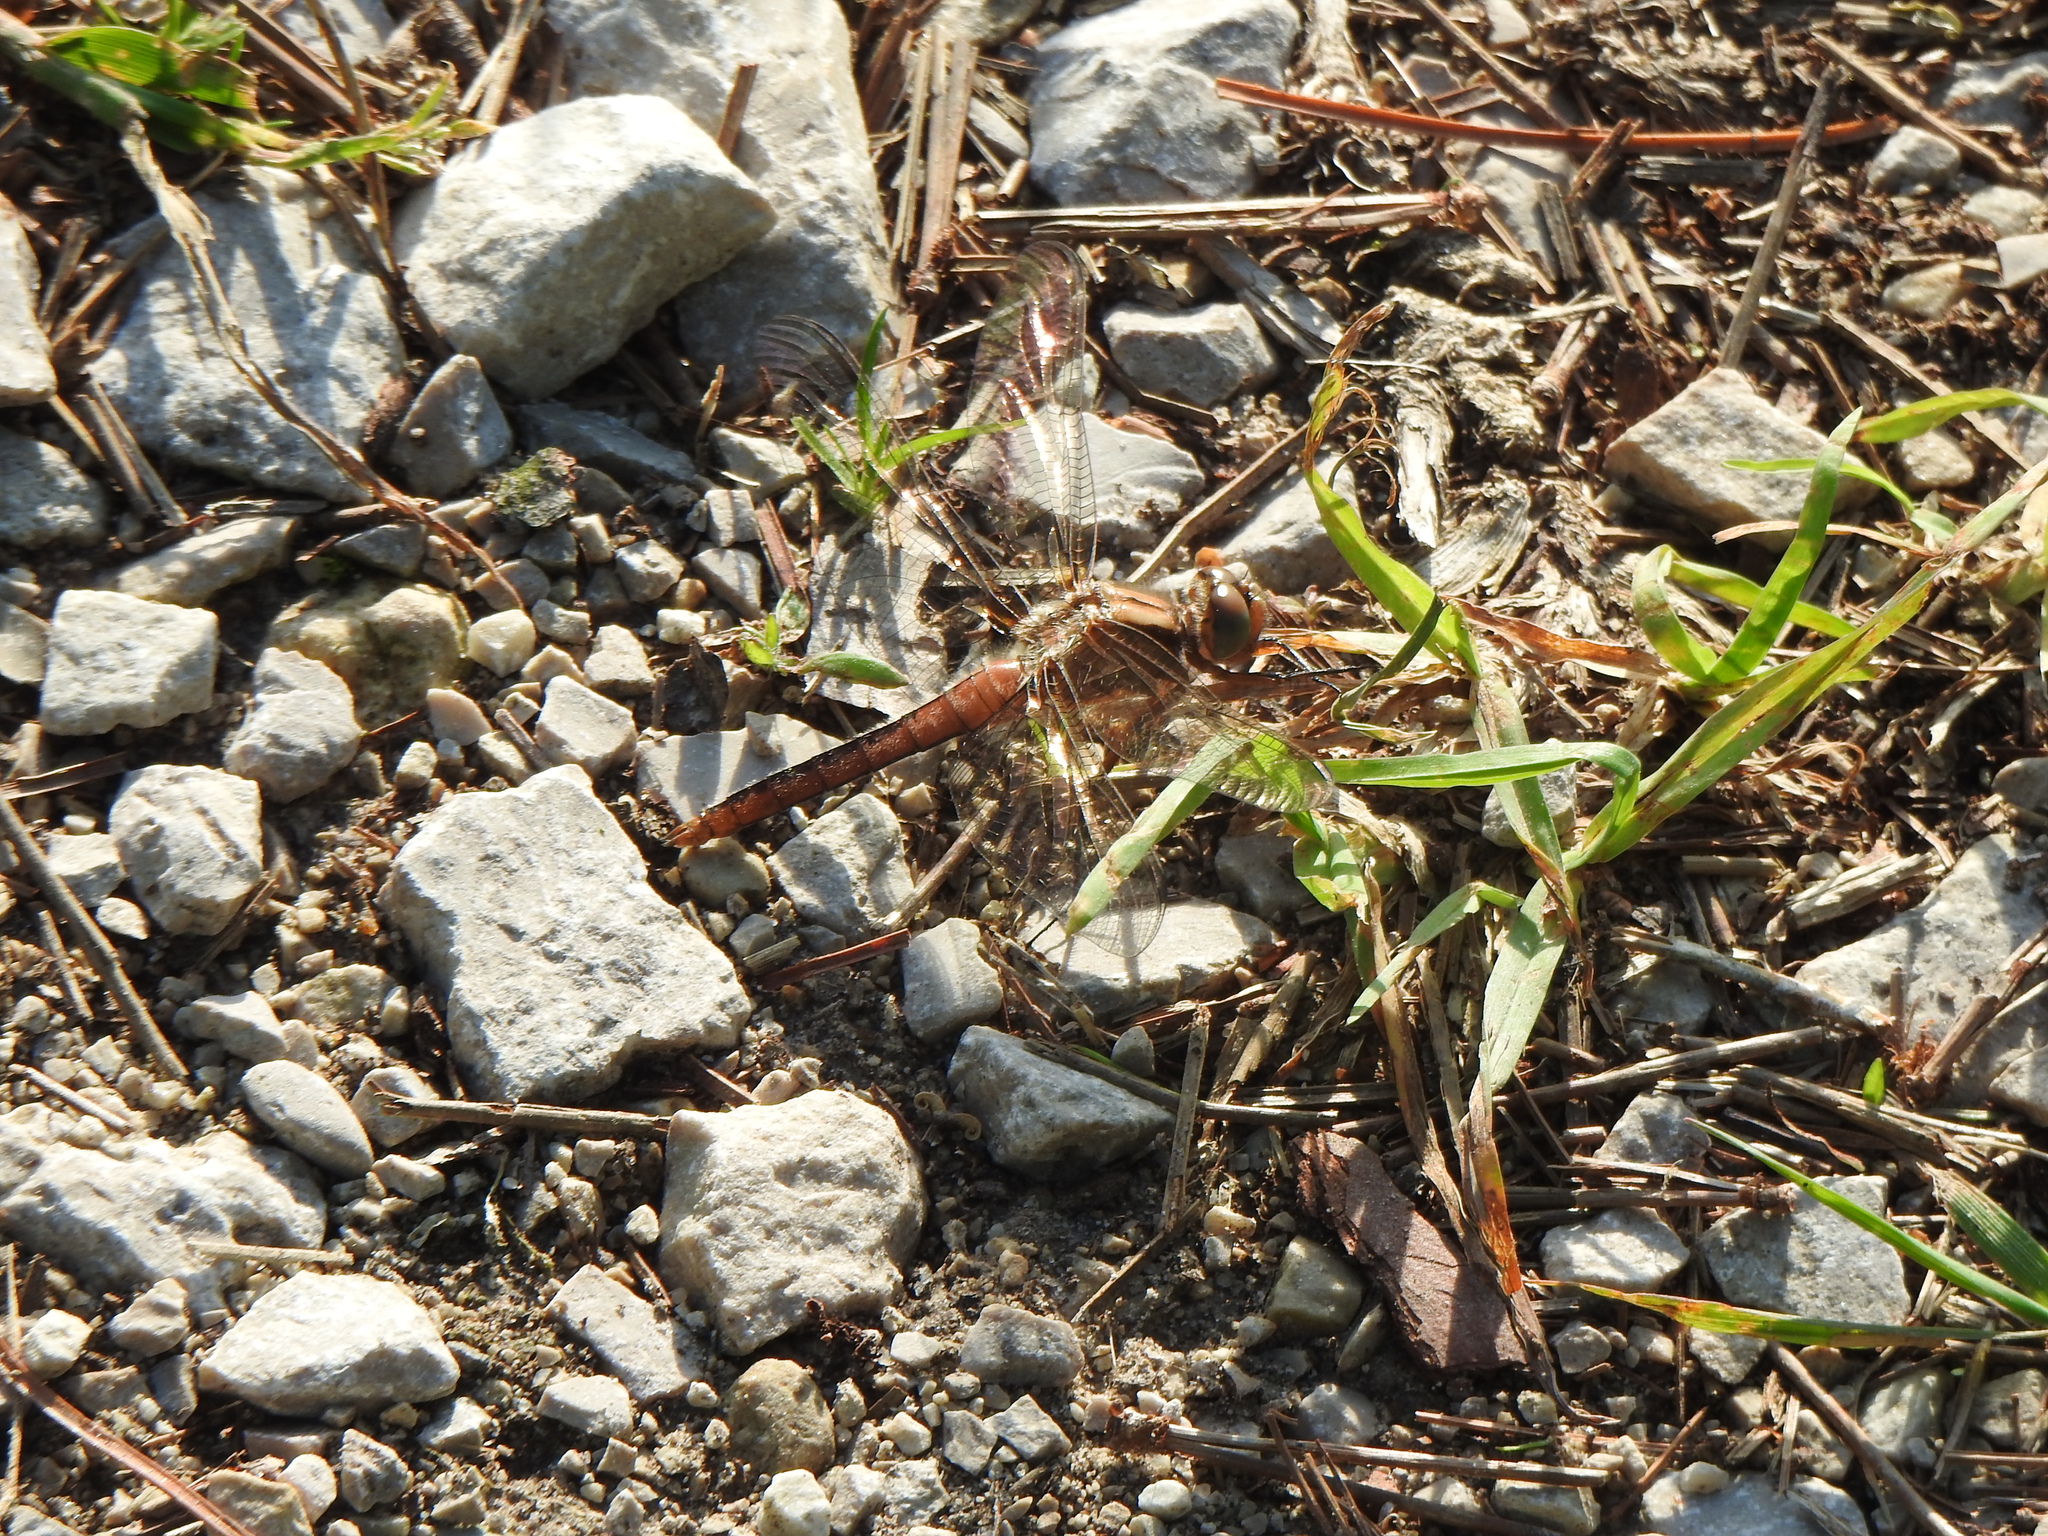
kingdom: Animalia
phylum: Arthropoda
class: Insecta
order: Odonata
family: Libellulidae
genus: Ladona
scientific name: Ladona julia
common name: Chalk-fronted corporal
